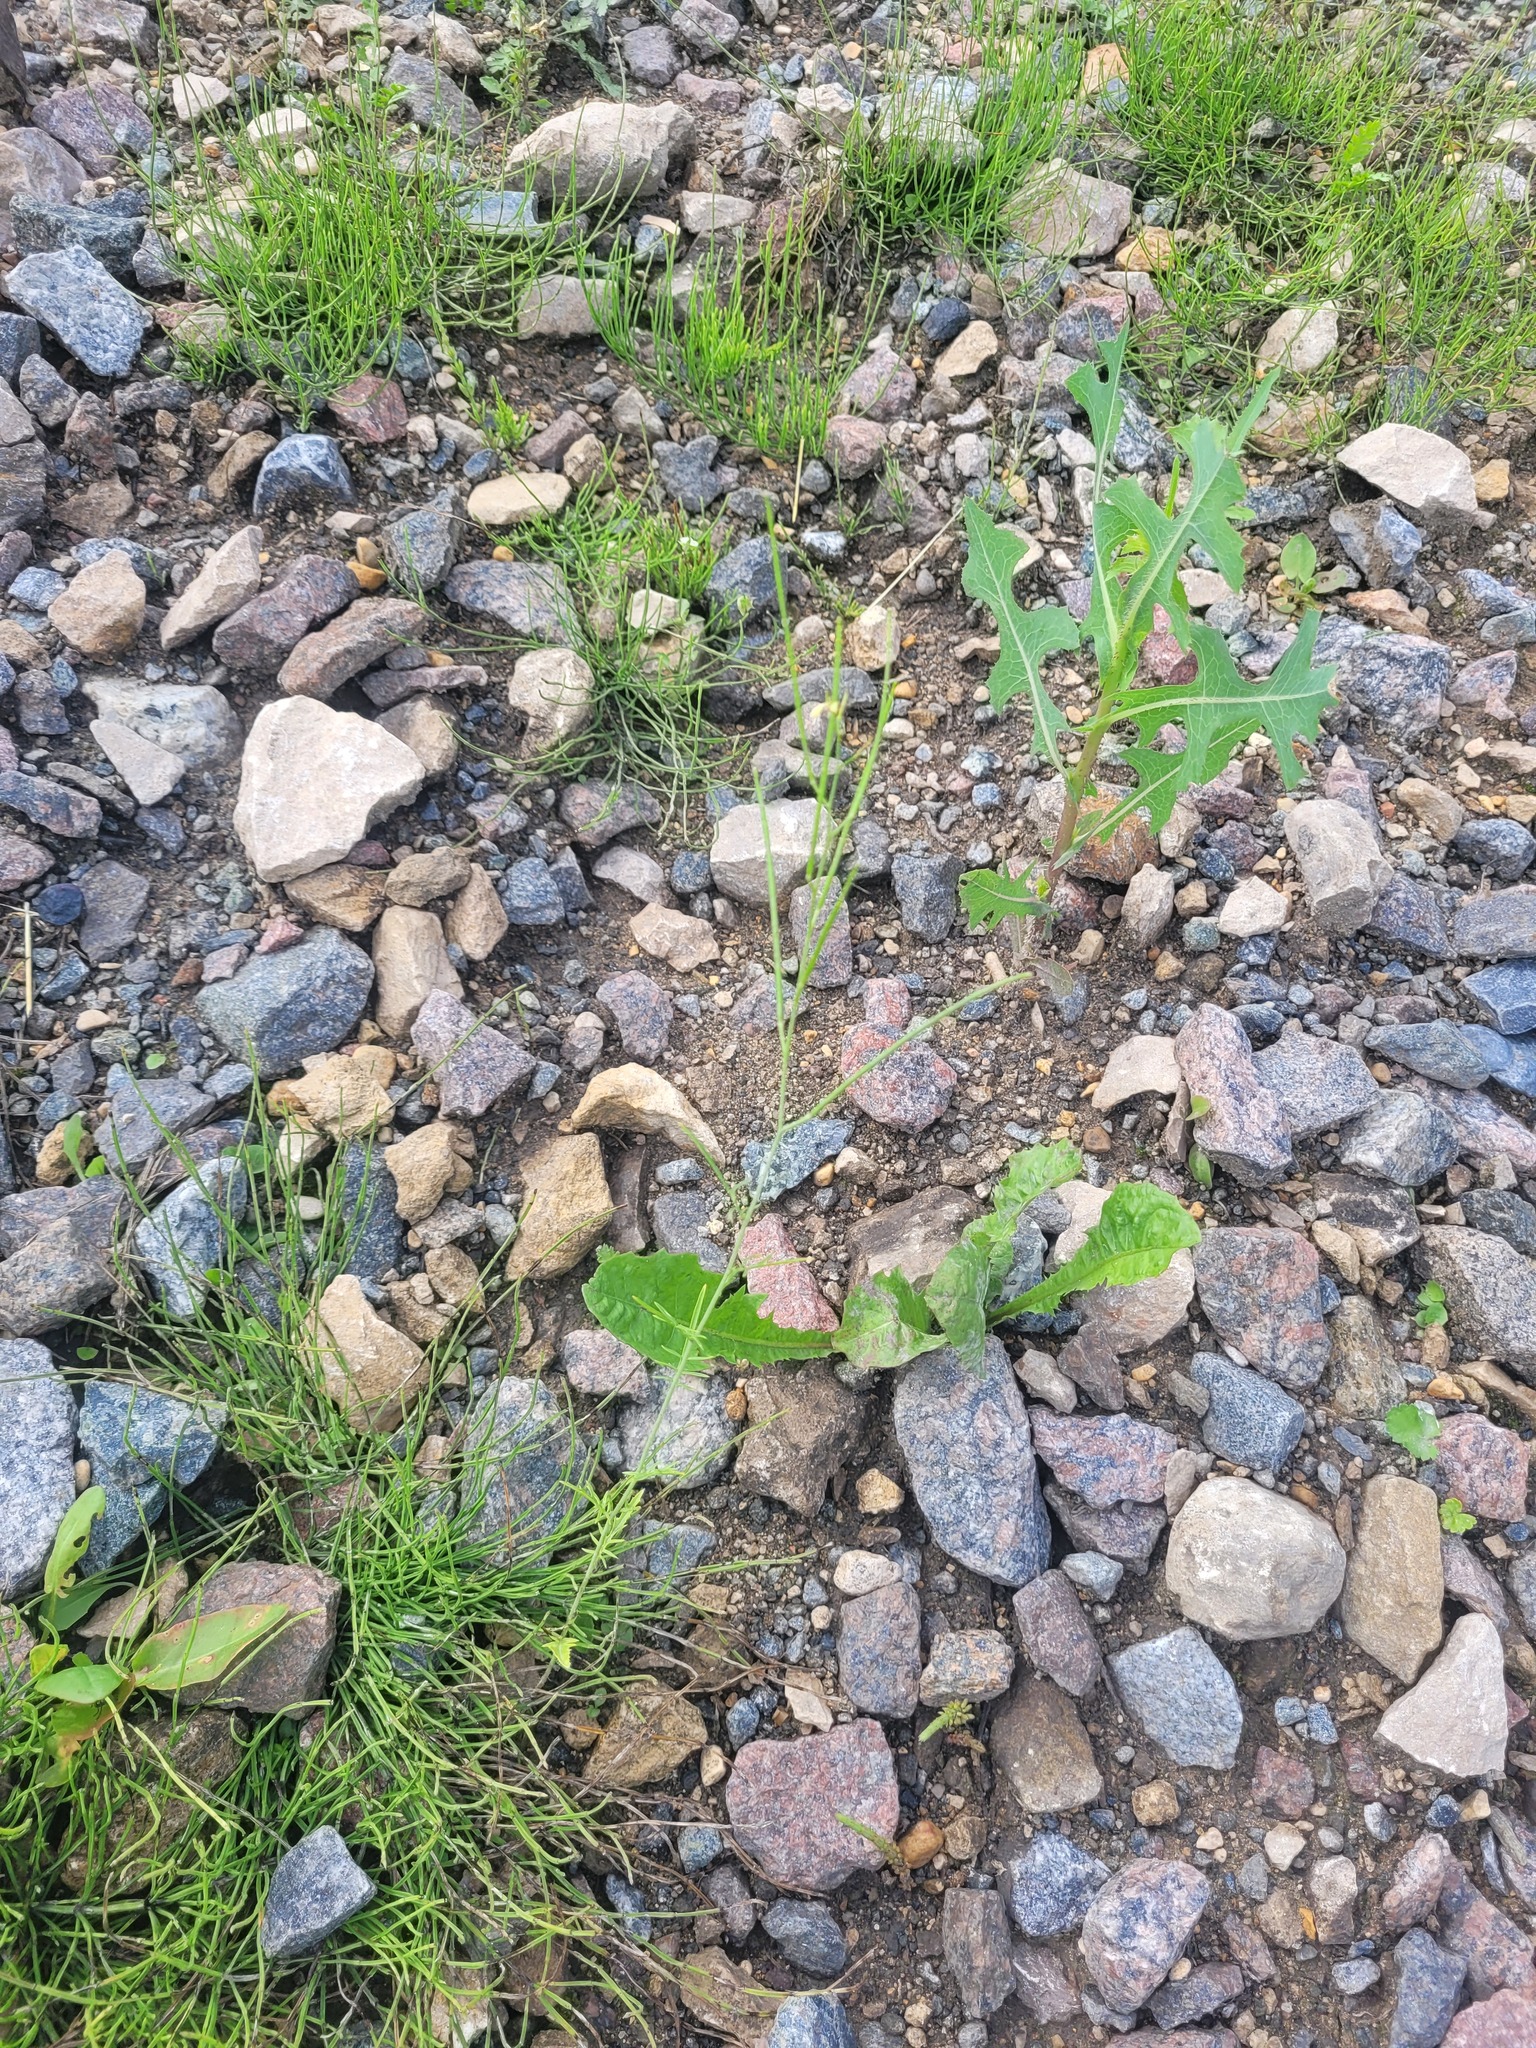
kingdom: Plantae
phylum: Tracheophyta
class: Magnoliopsida
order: Brassicales
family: Brassicaceae
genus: Sisymbrium
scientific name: Sisymbrium altissimum
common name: Tall rocket
